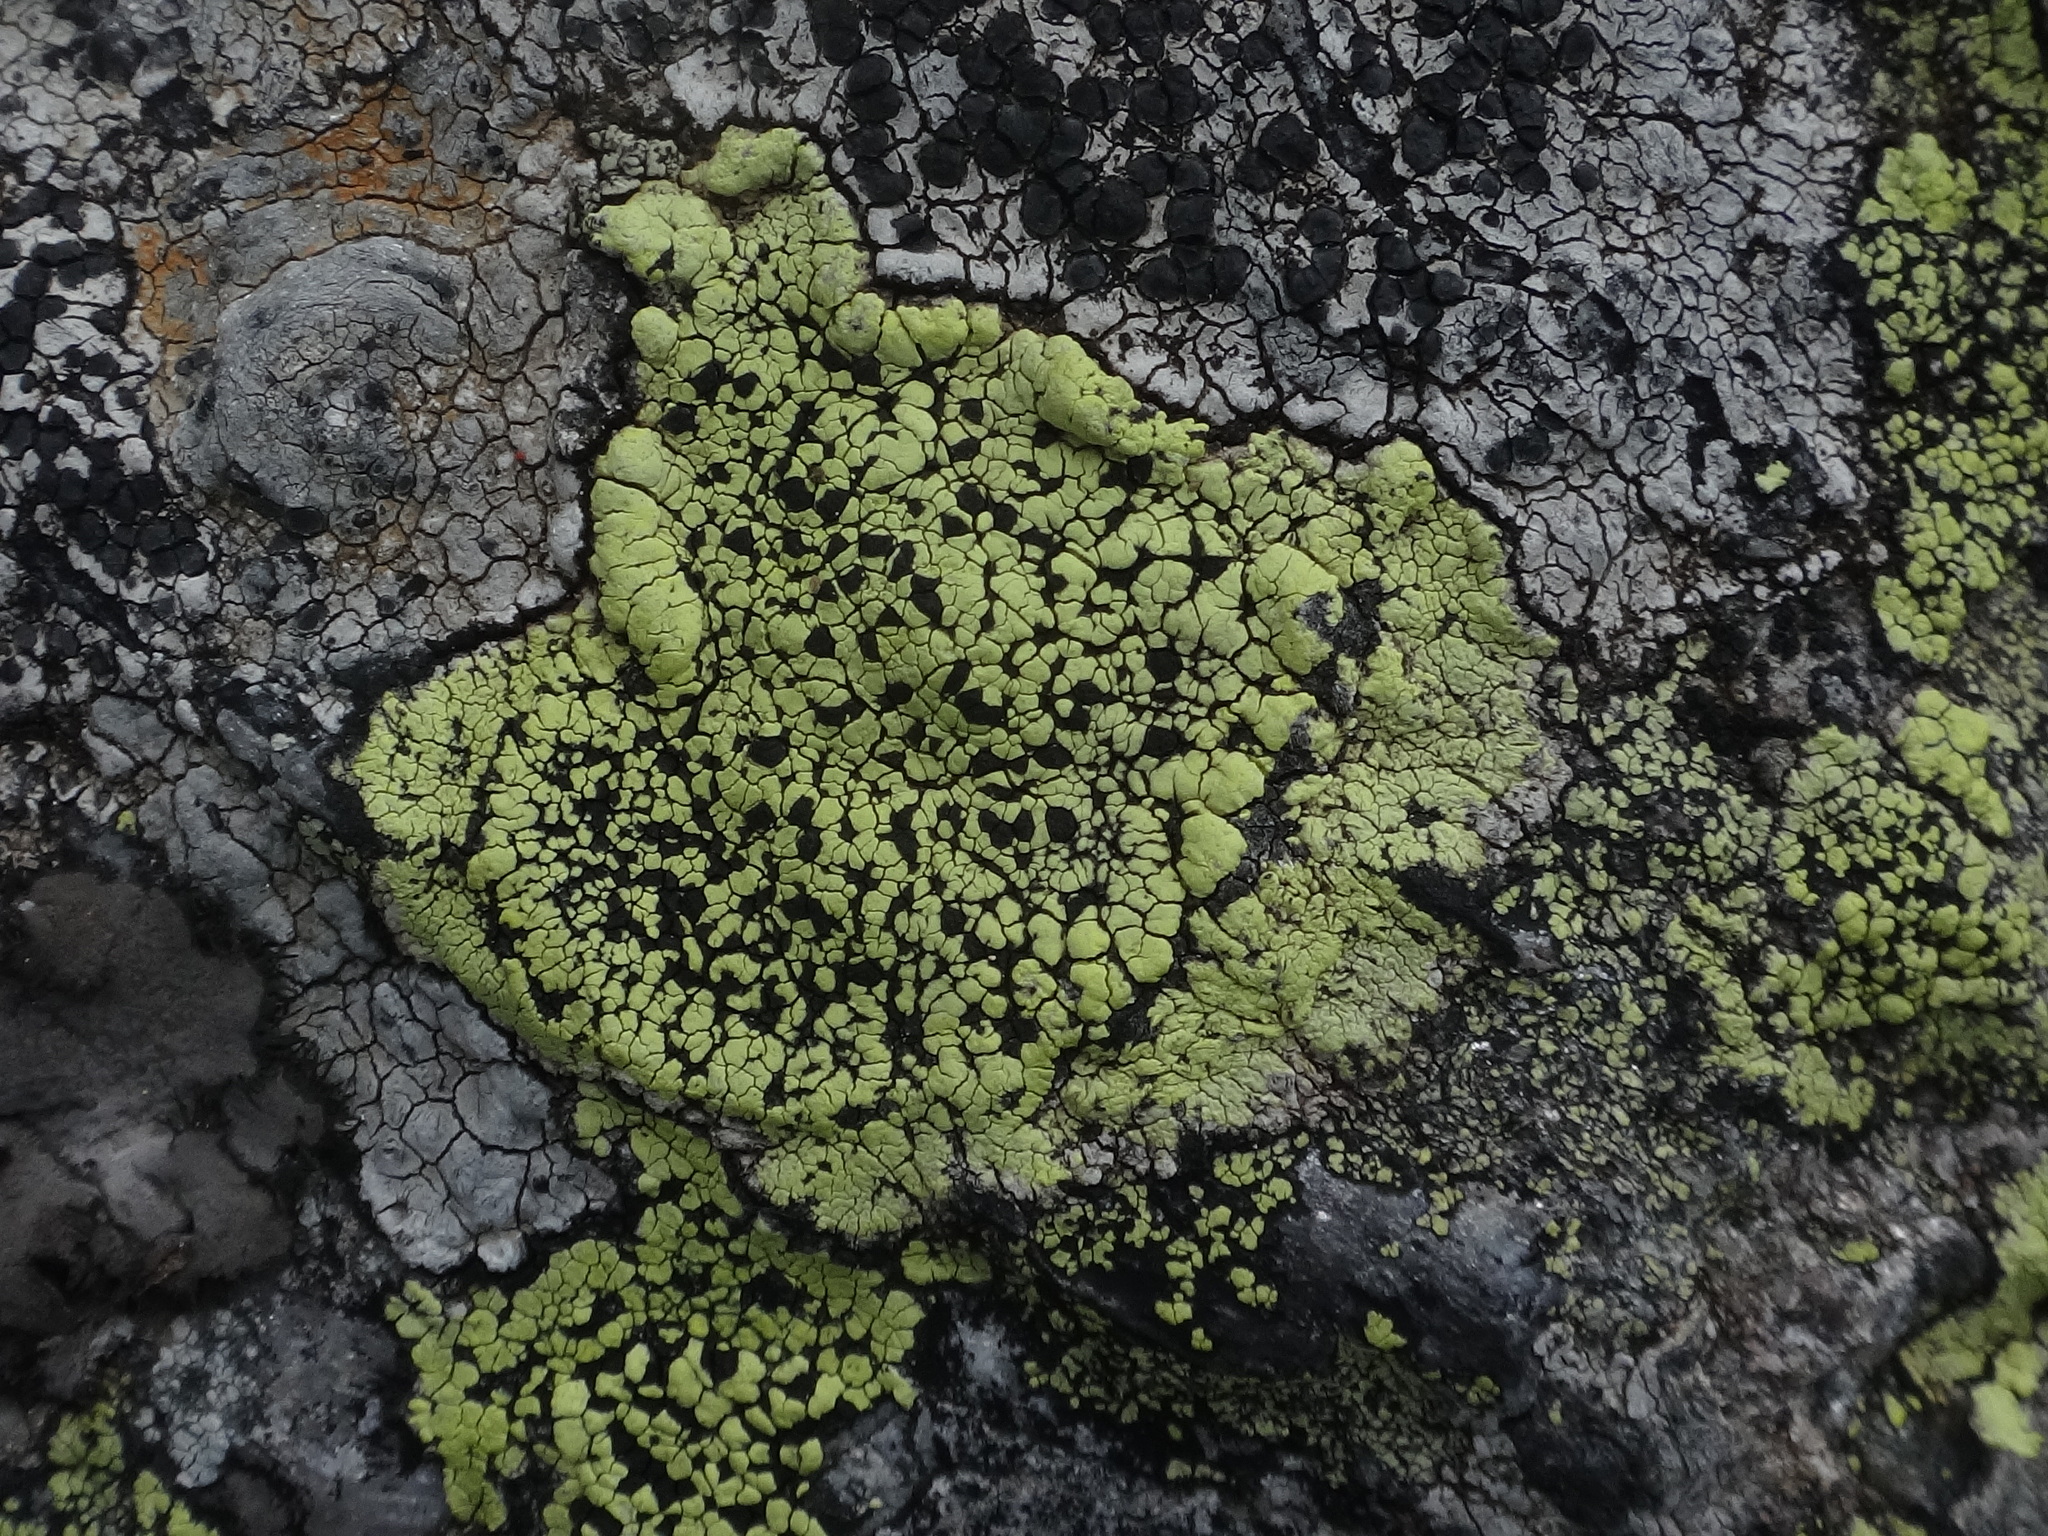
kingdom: Fungi
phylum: Ascomycota
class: Lecanoromycetes
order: Rhizocarpales
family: Rhizocarpaceae
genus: Rhizocarpon
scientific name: Rhizocarpon geographicum
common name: Yellow map lichen
